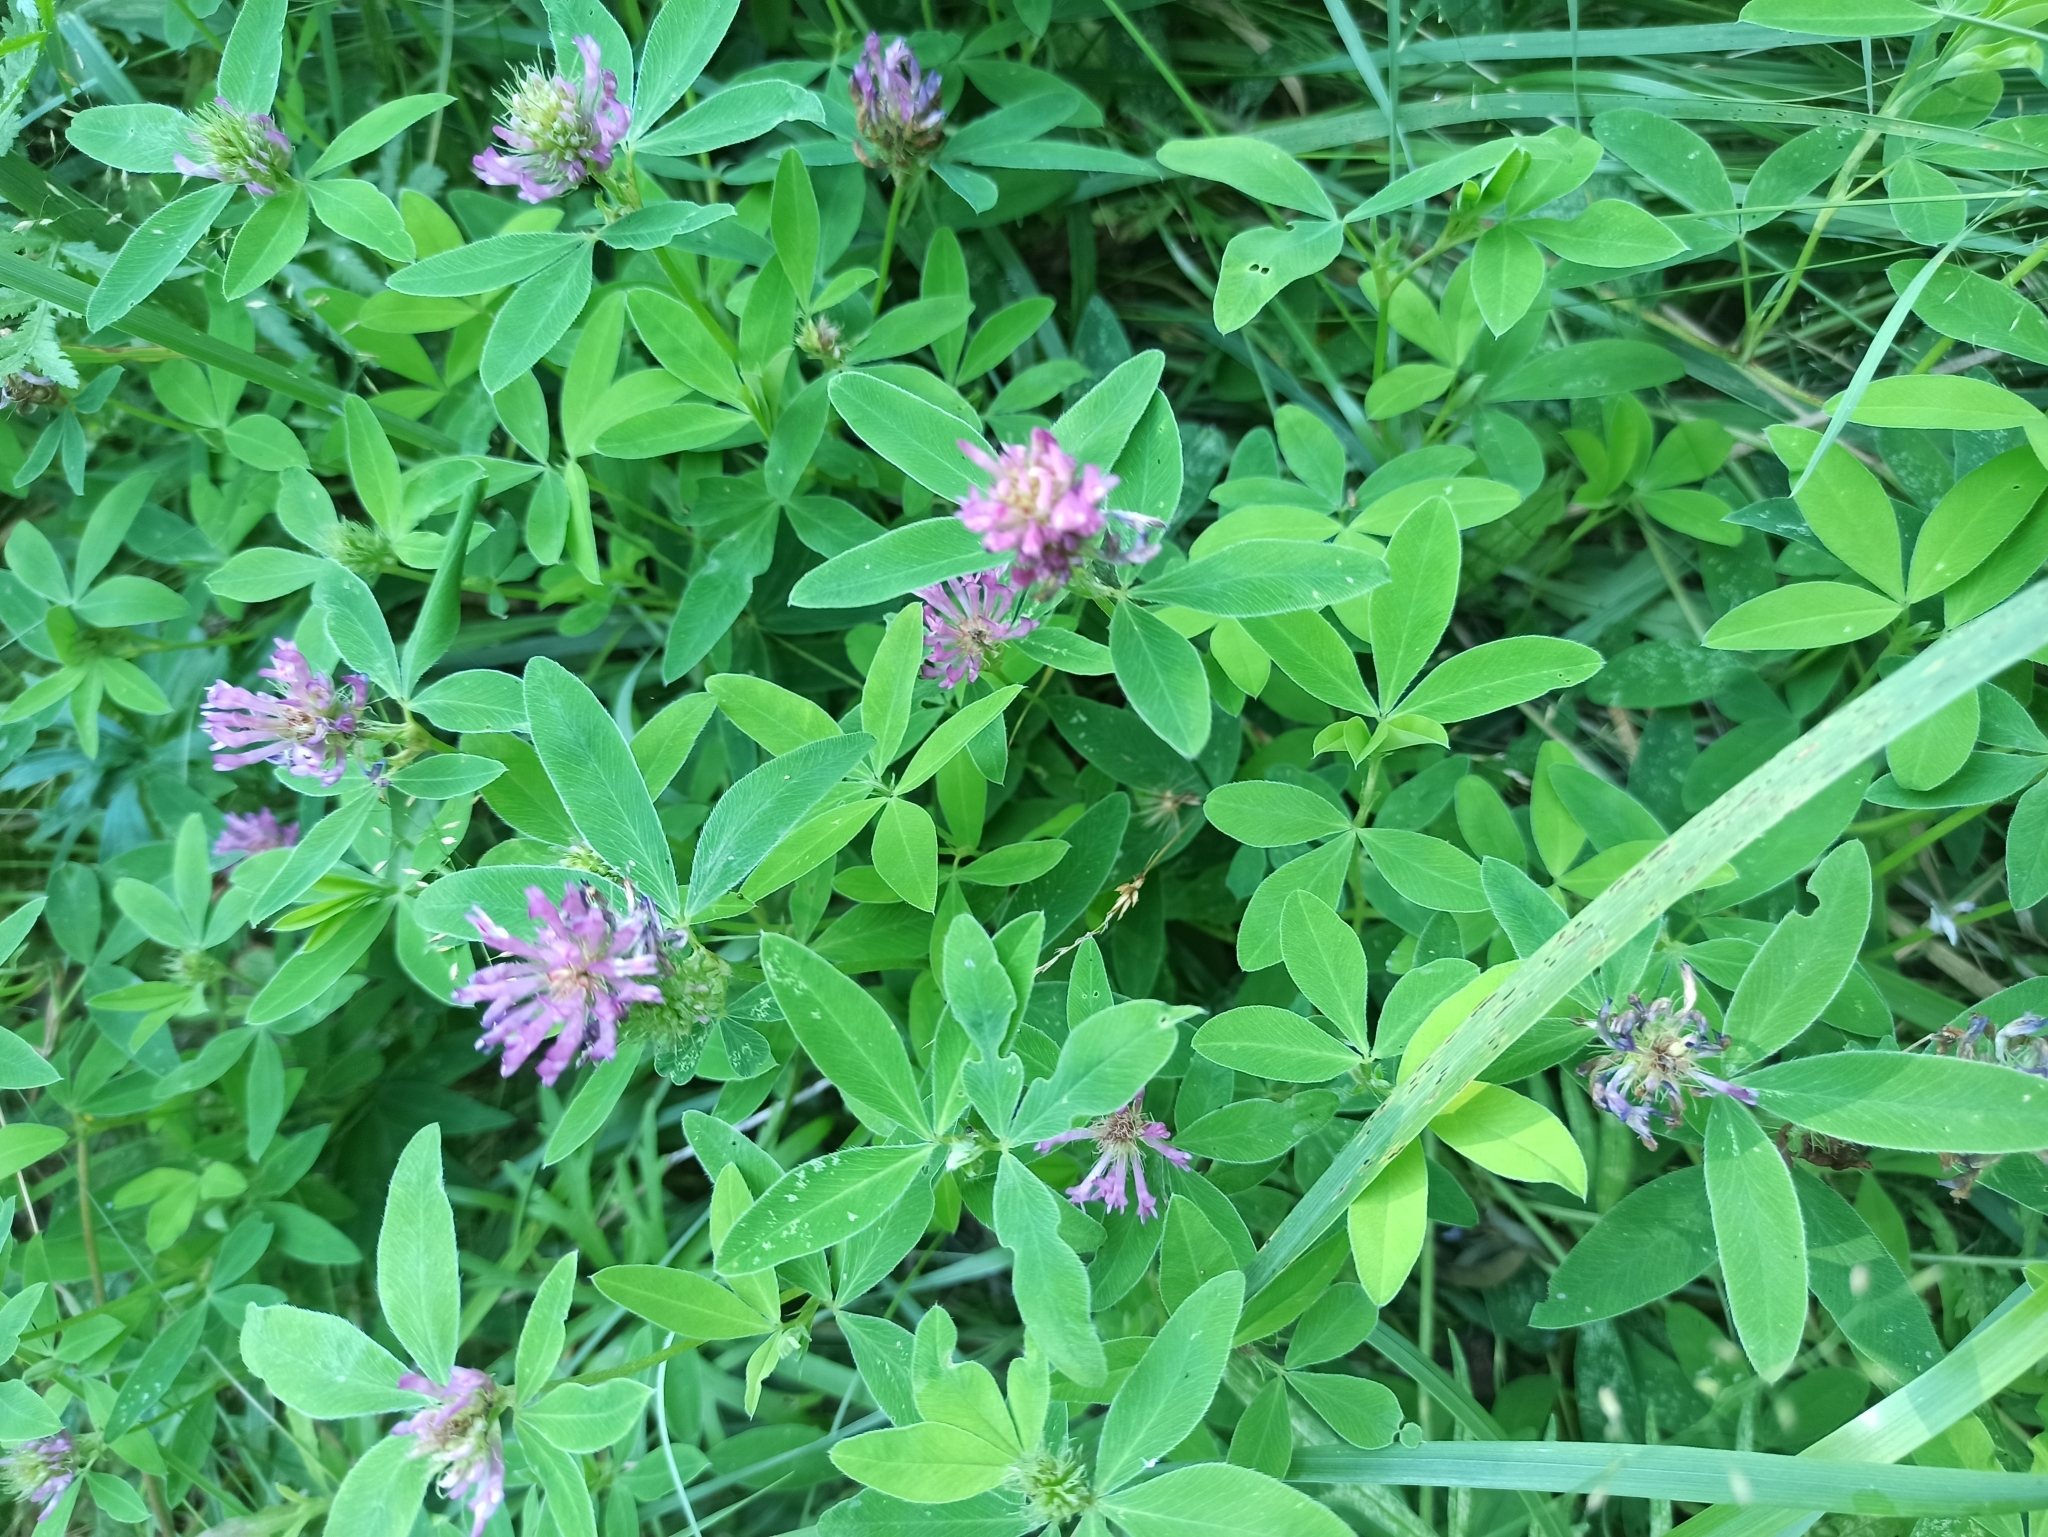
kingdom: Plantae
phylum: Tracheophyta
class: Magnoliopsida
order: Fabales
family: Fabaceae
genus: Trifolium
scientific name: Trifolium medium
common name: Zigzag clover
